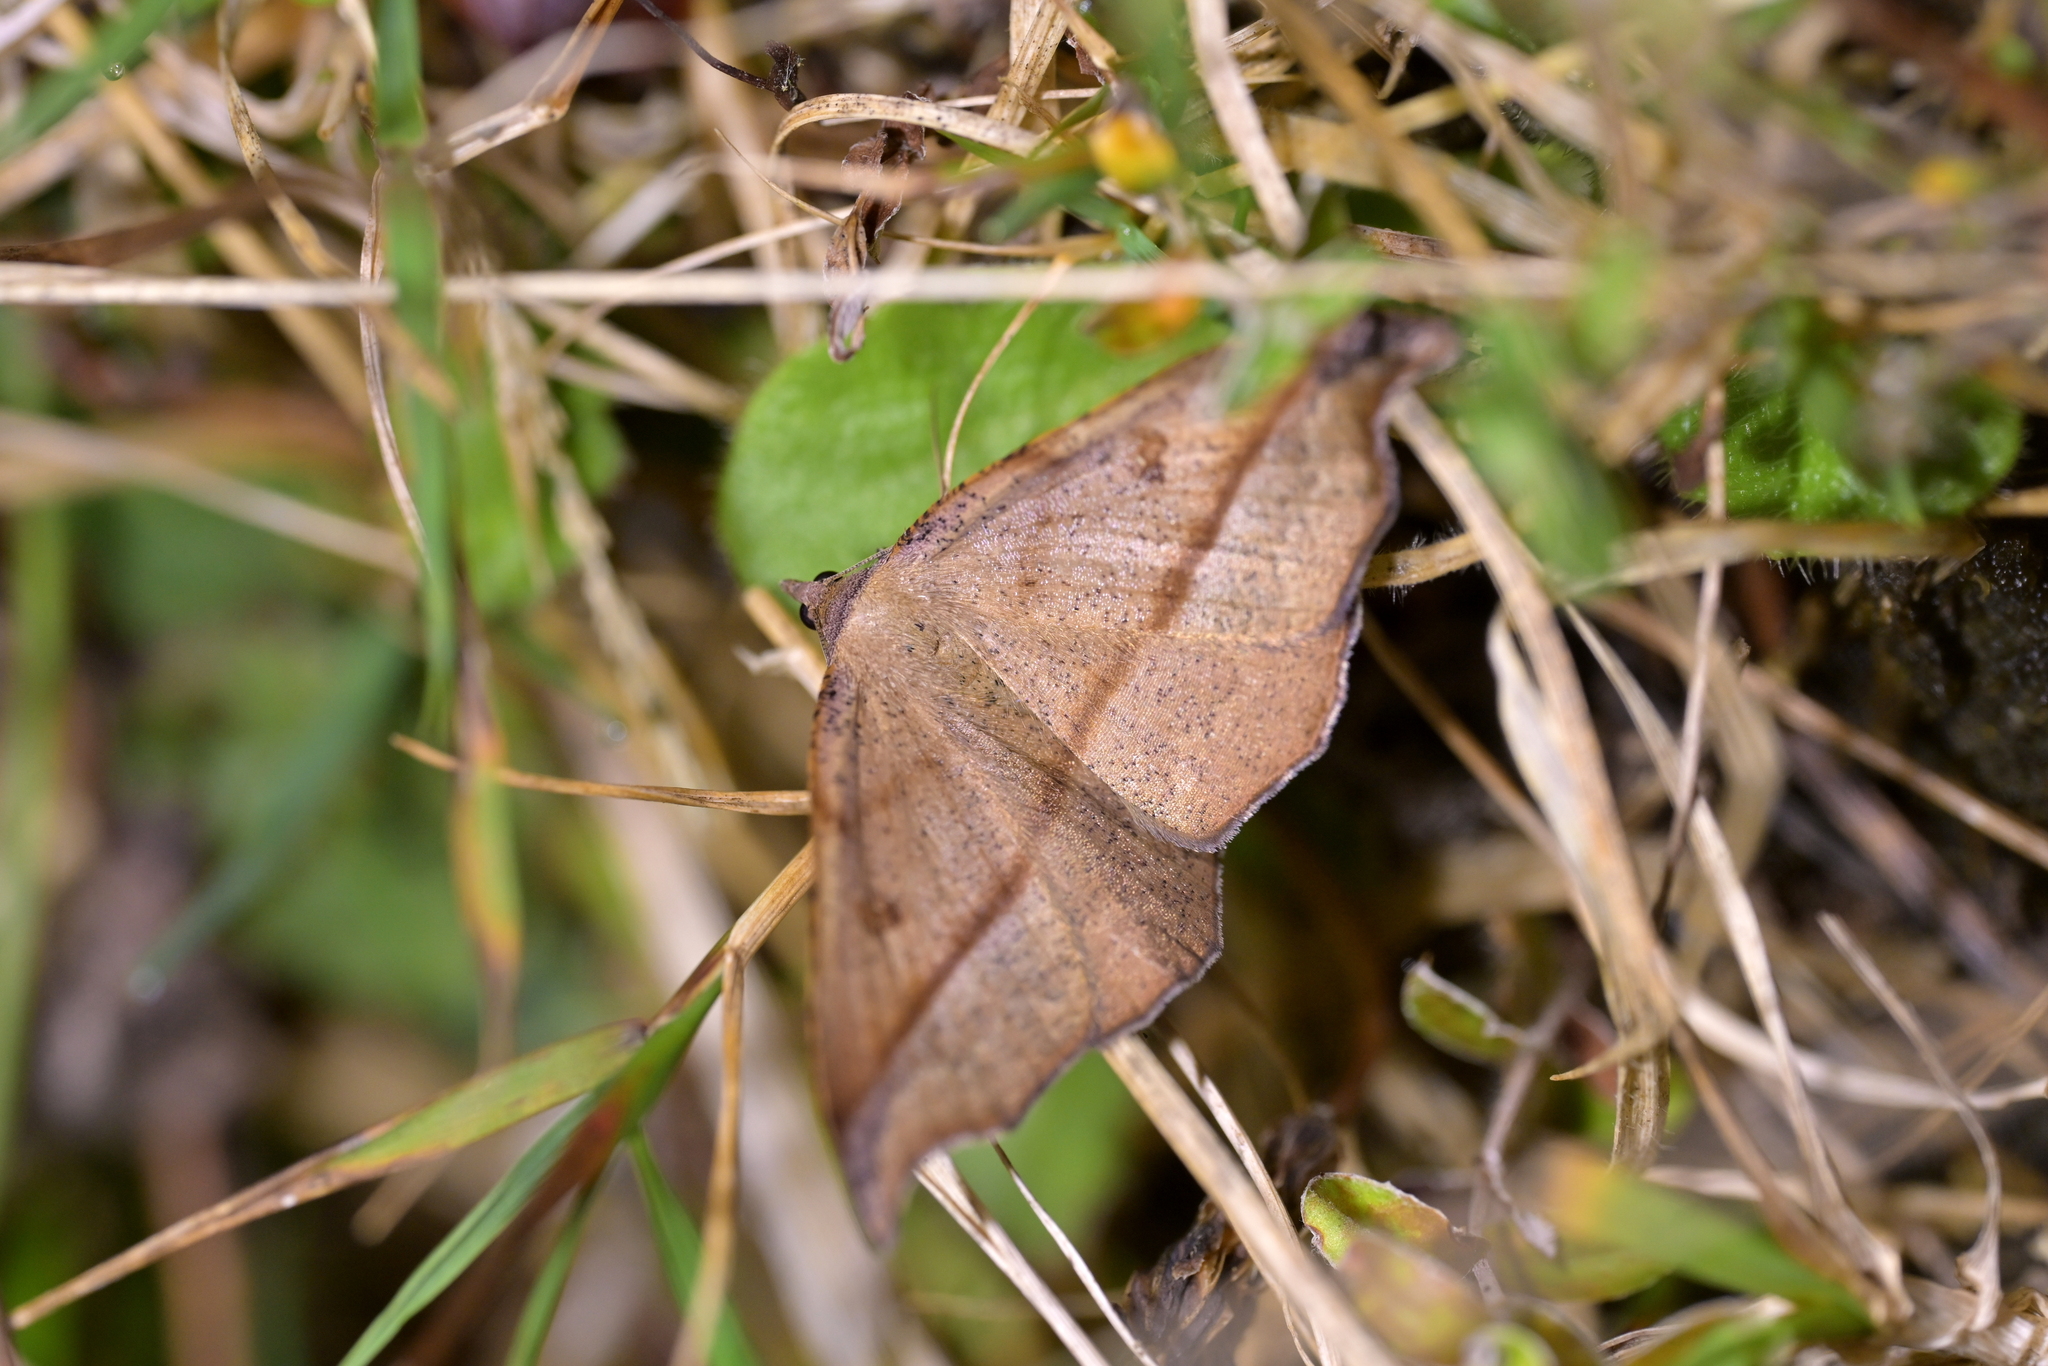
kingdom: Animalia
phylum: Arthropoda
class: Insecta
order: Lepidoptera
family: Geometridae
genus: Sarisa
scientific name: Sarisa muriferata
